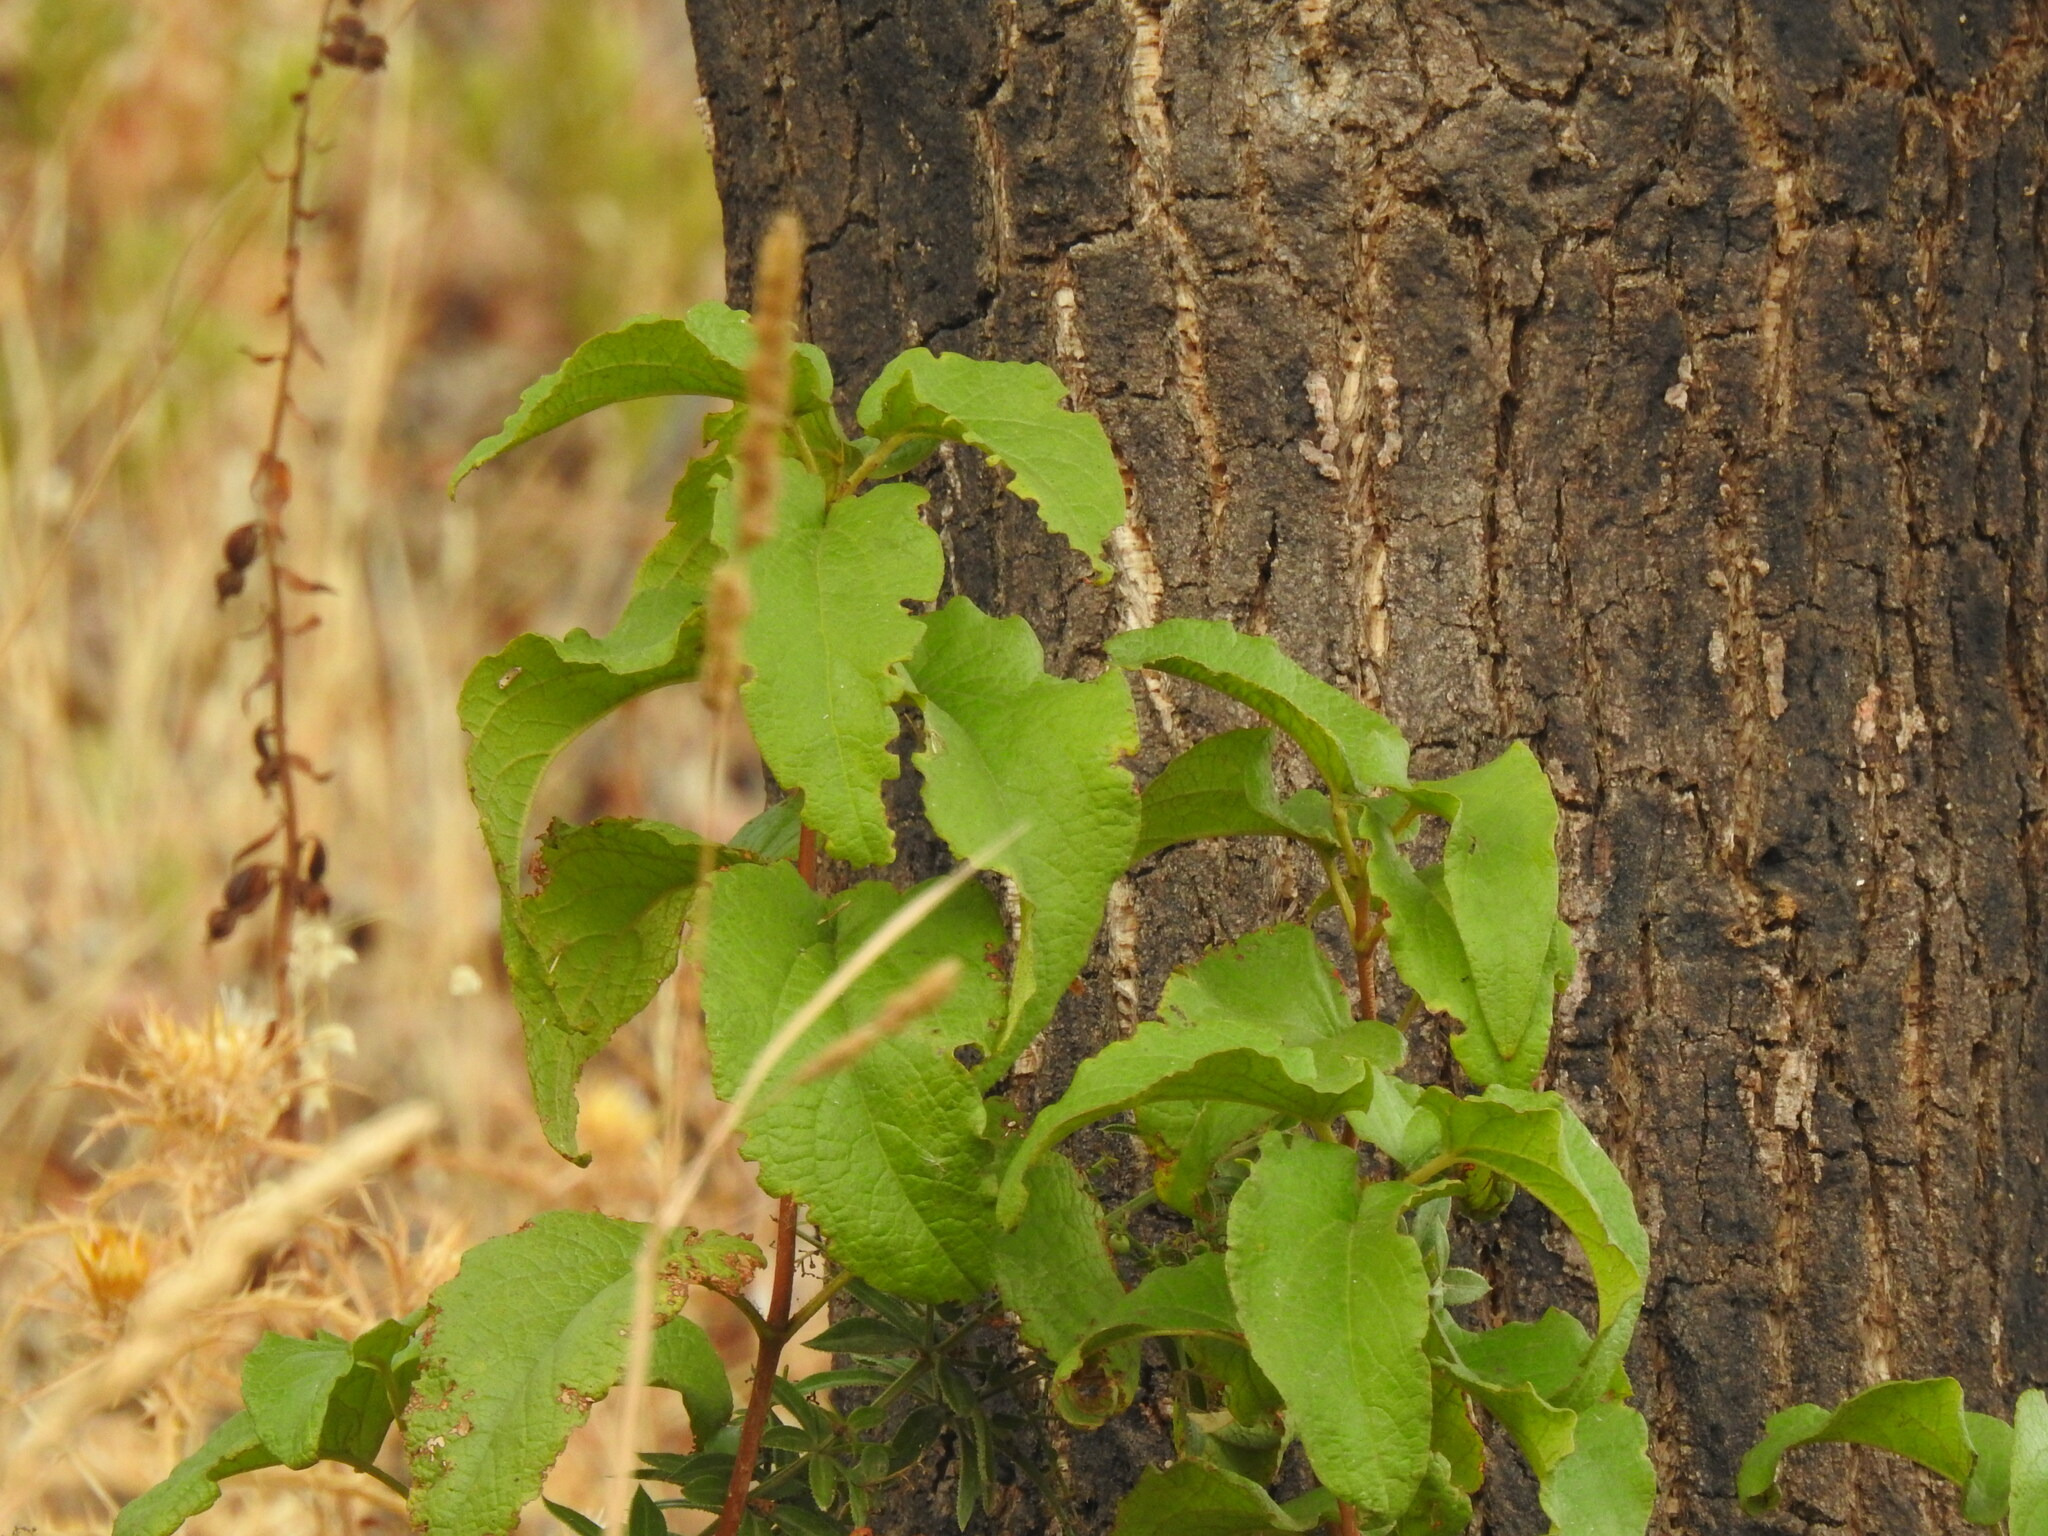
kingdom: Plantae
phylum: Tracheophyta
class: Magnoliopsida
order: Malvales
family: Cistaceae
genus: Cistus
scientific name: Cistus populifolius
